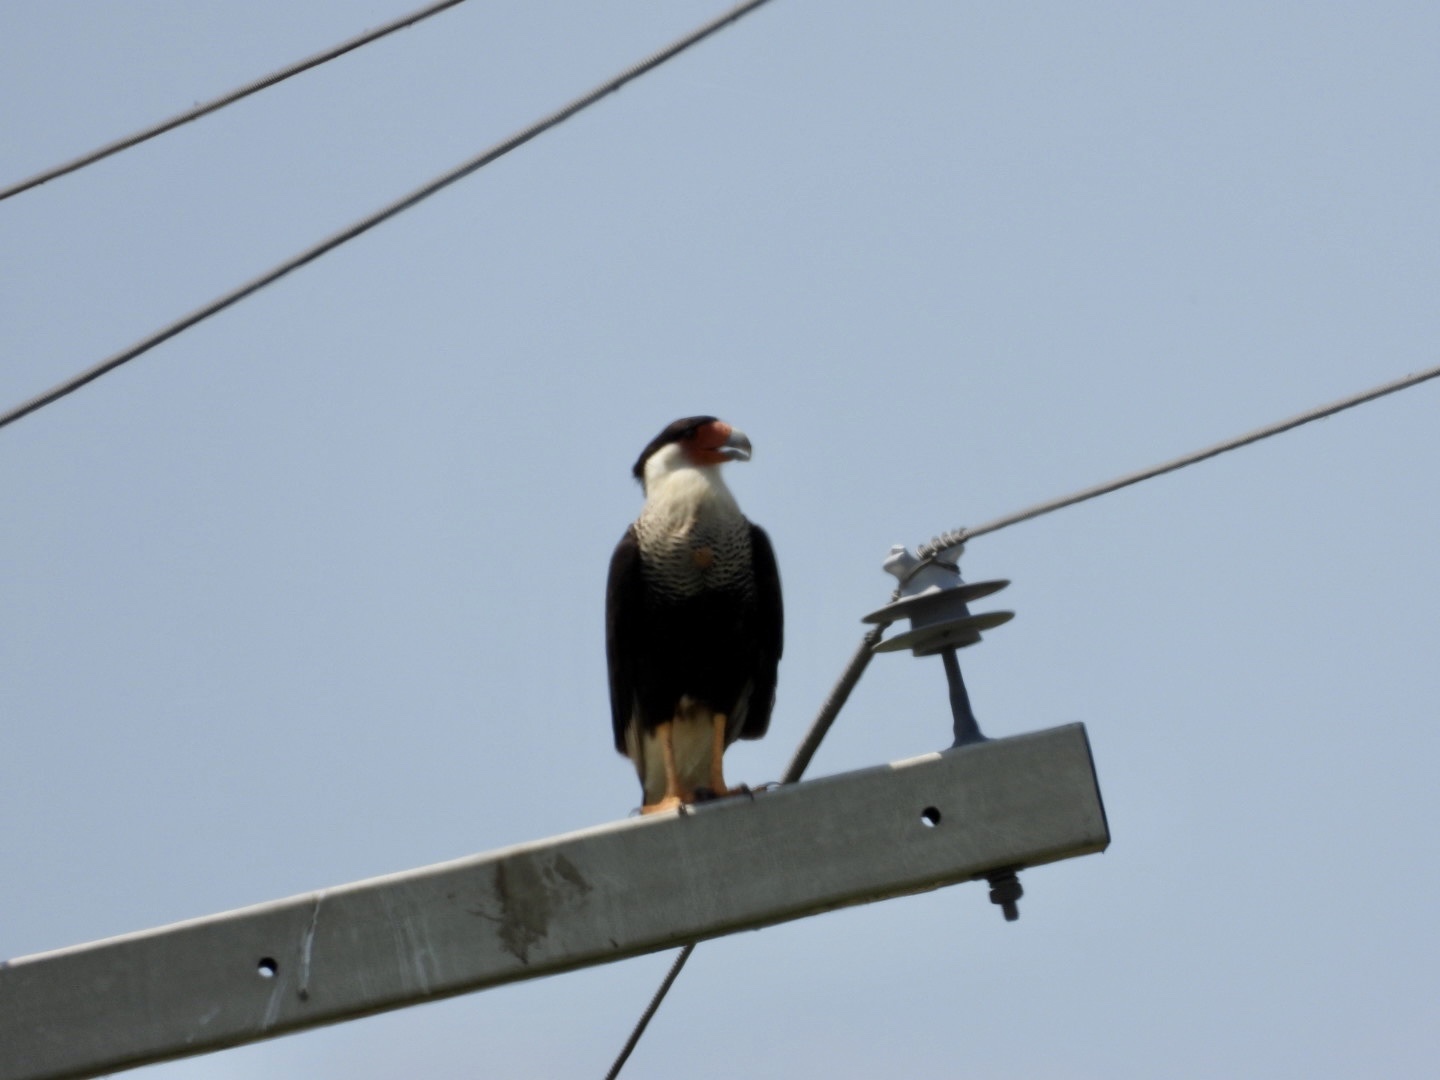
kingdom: Animalia
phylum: Chordata
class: Aves
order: Falconiformes
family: Falconidae
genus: Caracara
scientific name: Caracara plancus
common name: Southern caracara
